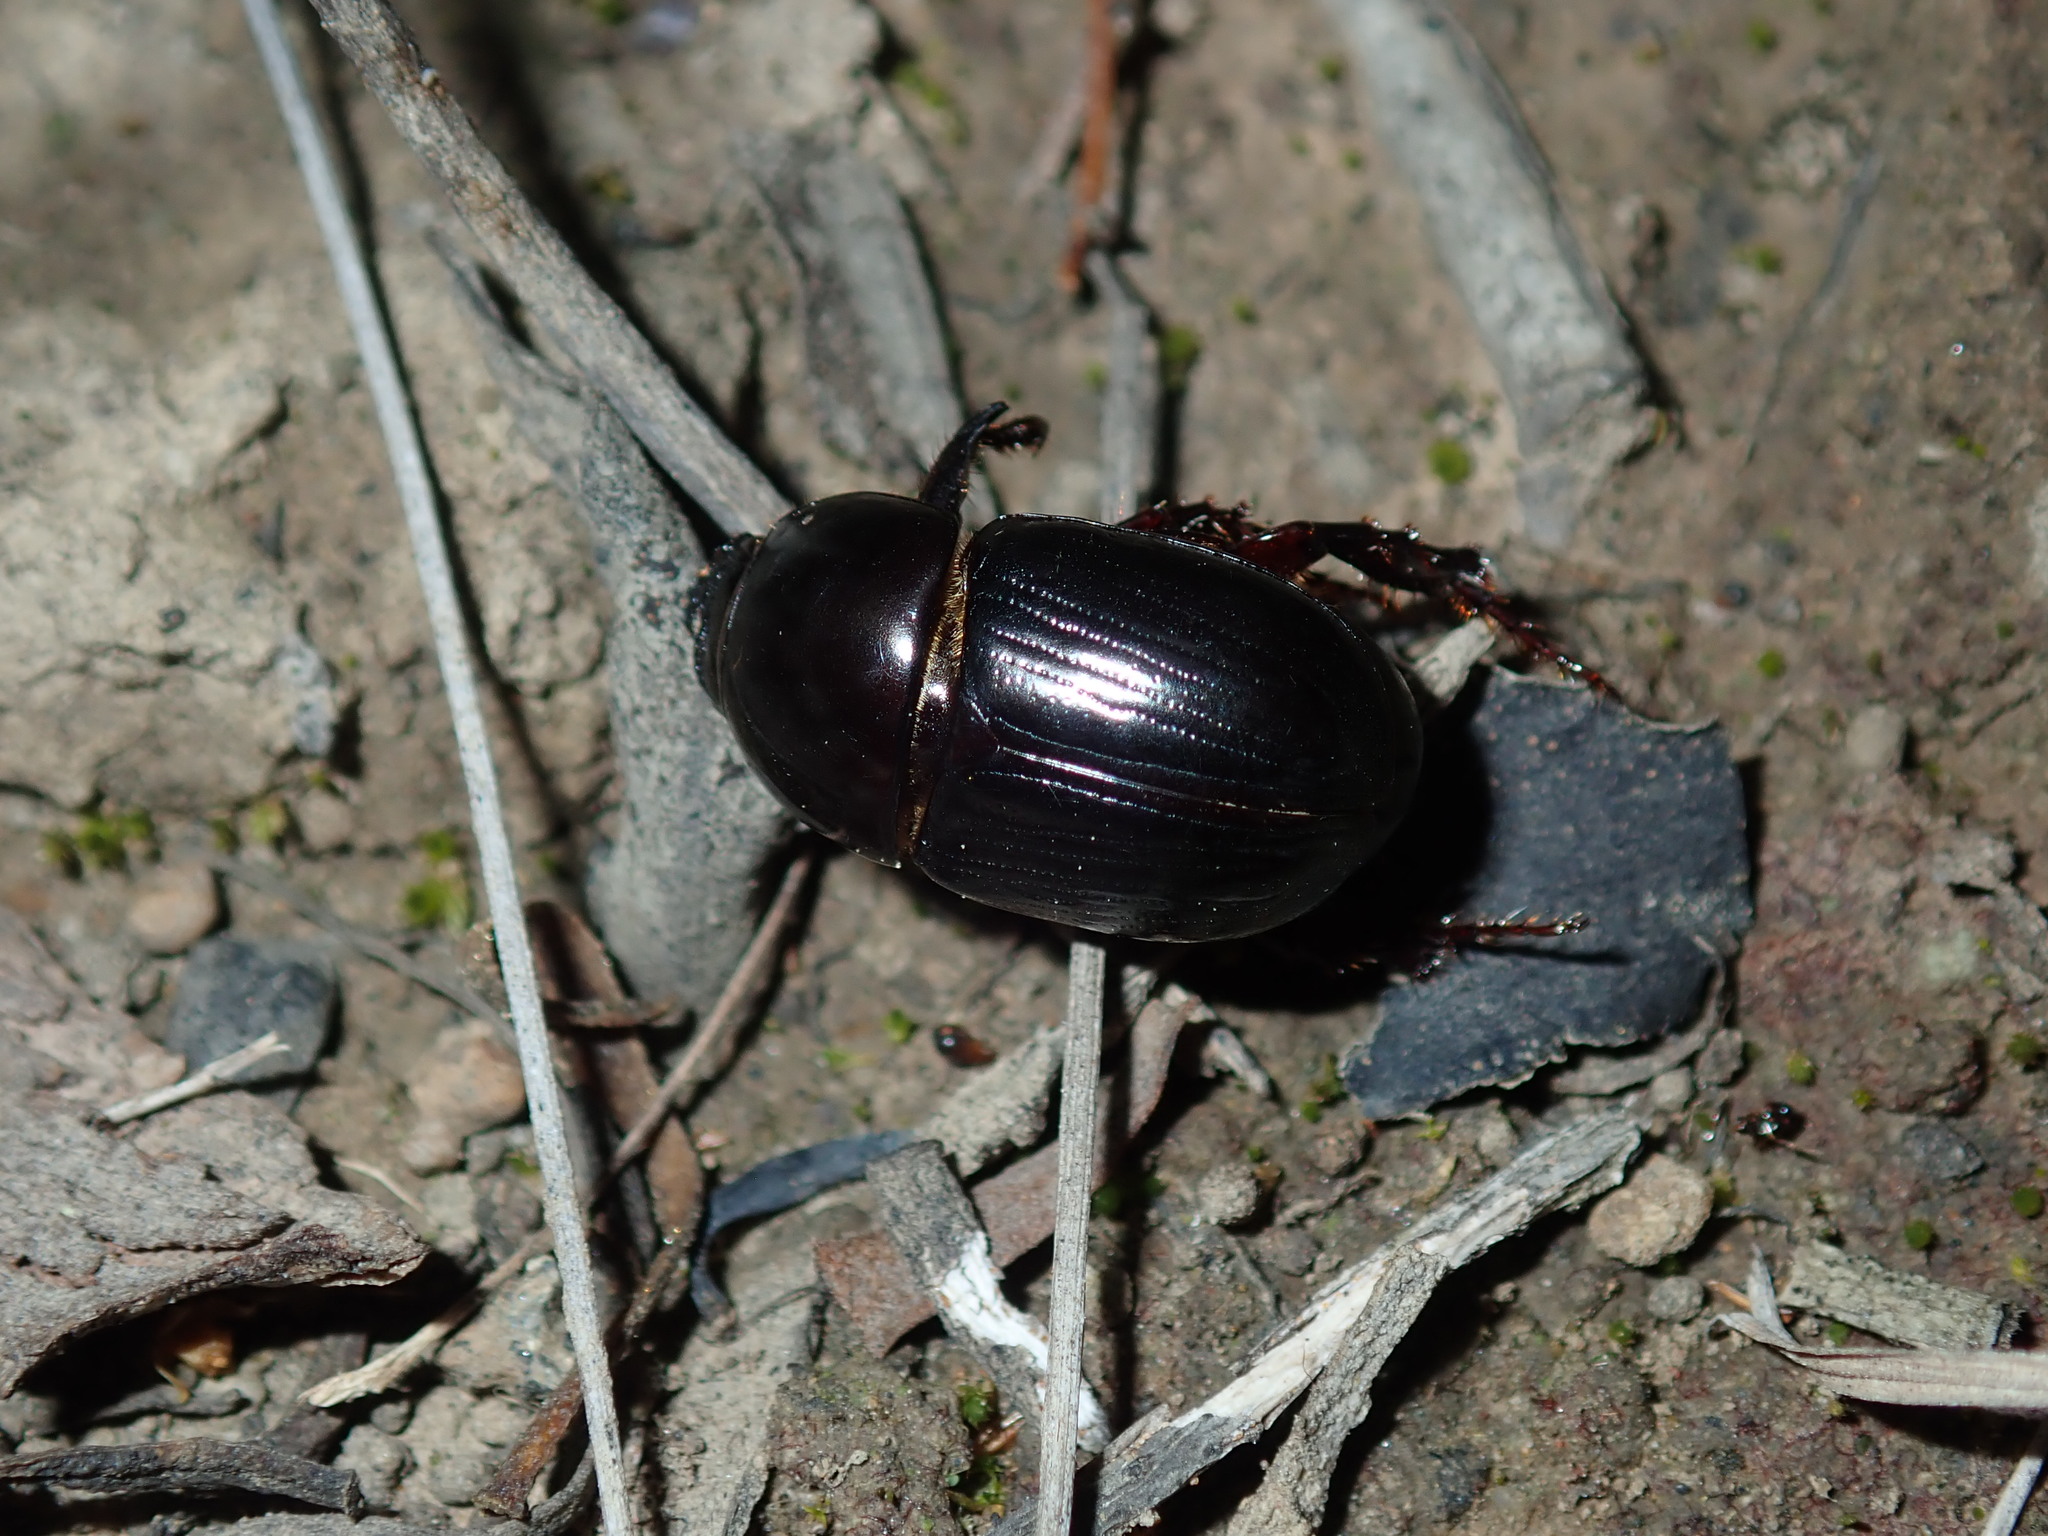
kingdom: Animalia
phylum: Arthropoda
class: Insecta
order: Coleoptera
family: Scarabaeidae
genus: Heteronychus
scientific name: Heteronychus arator
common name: African black beetle
